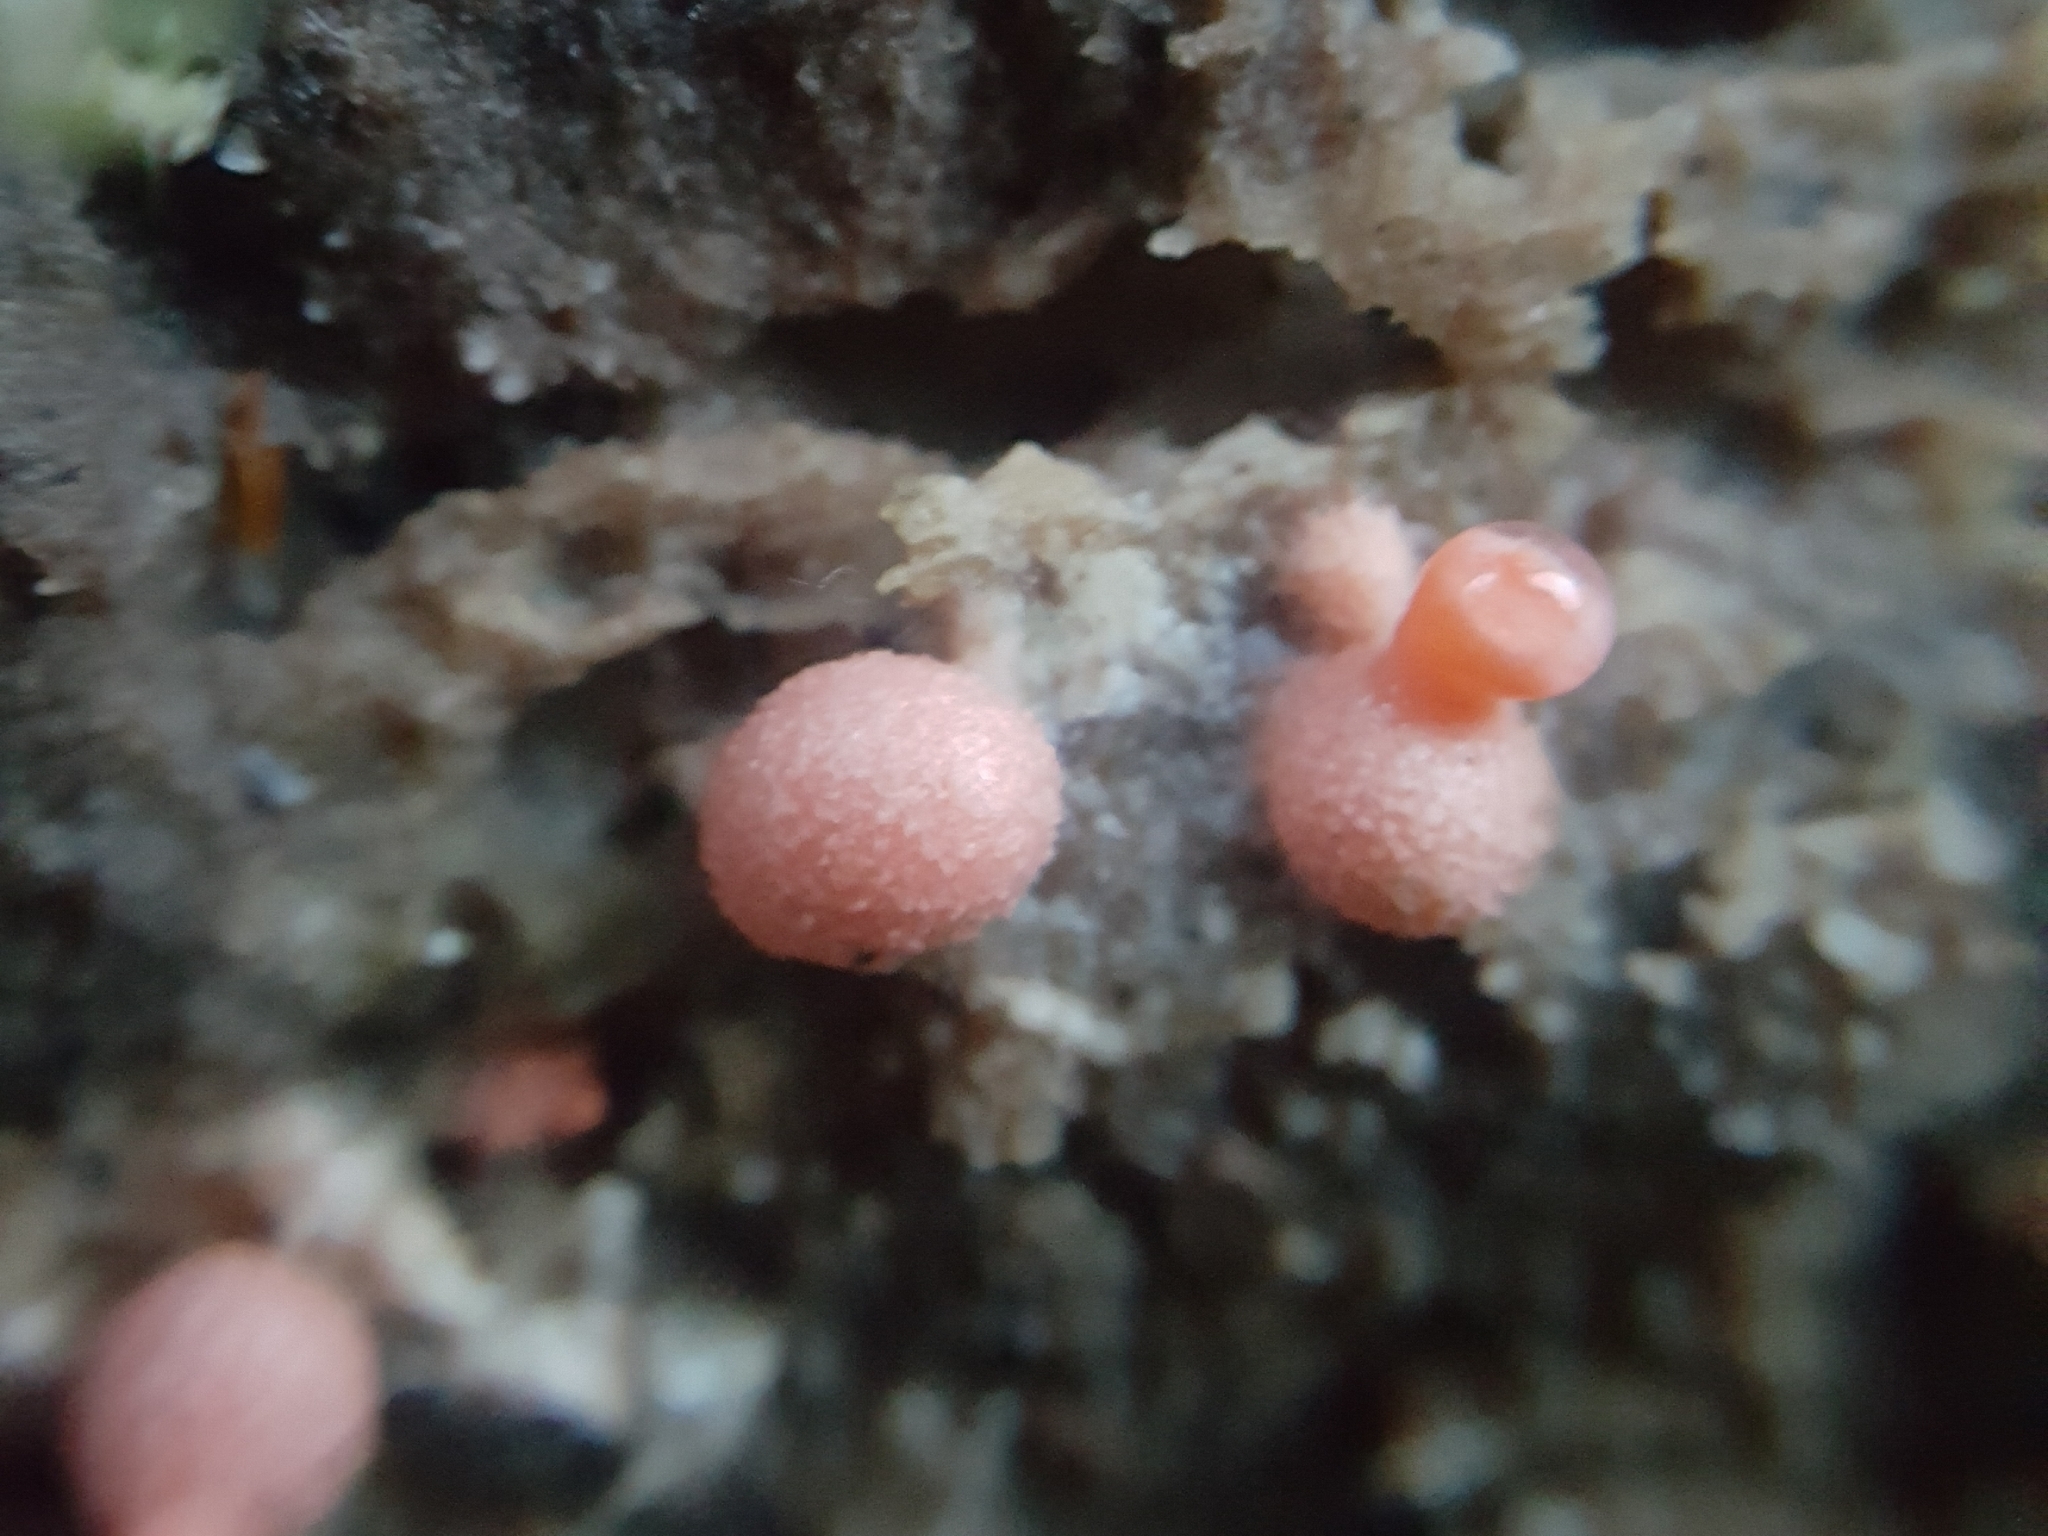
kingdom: Protozoa
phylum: Mycetozoa
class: Myxomycetes
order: Cribrariales
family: Tubiferaceae
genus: Lycogala
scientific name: Lycogala epidendrum
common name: Wolf's milk
